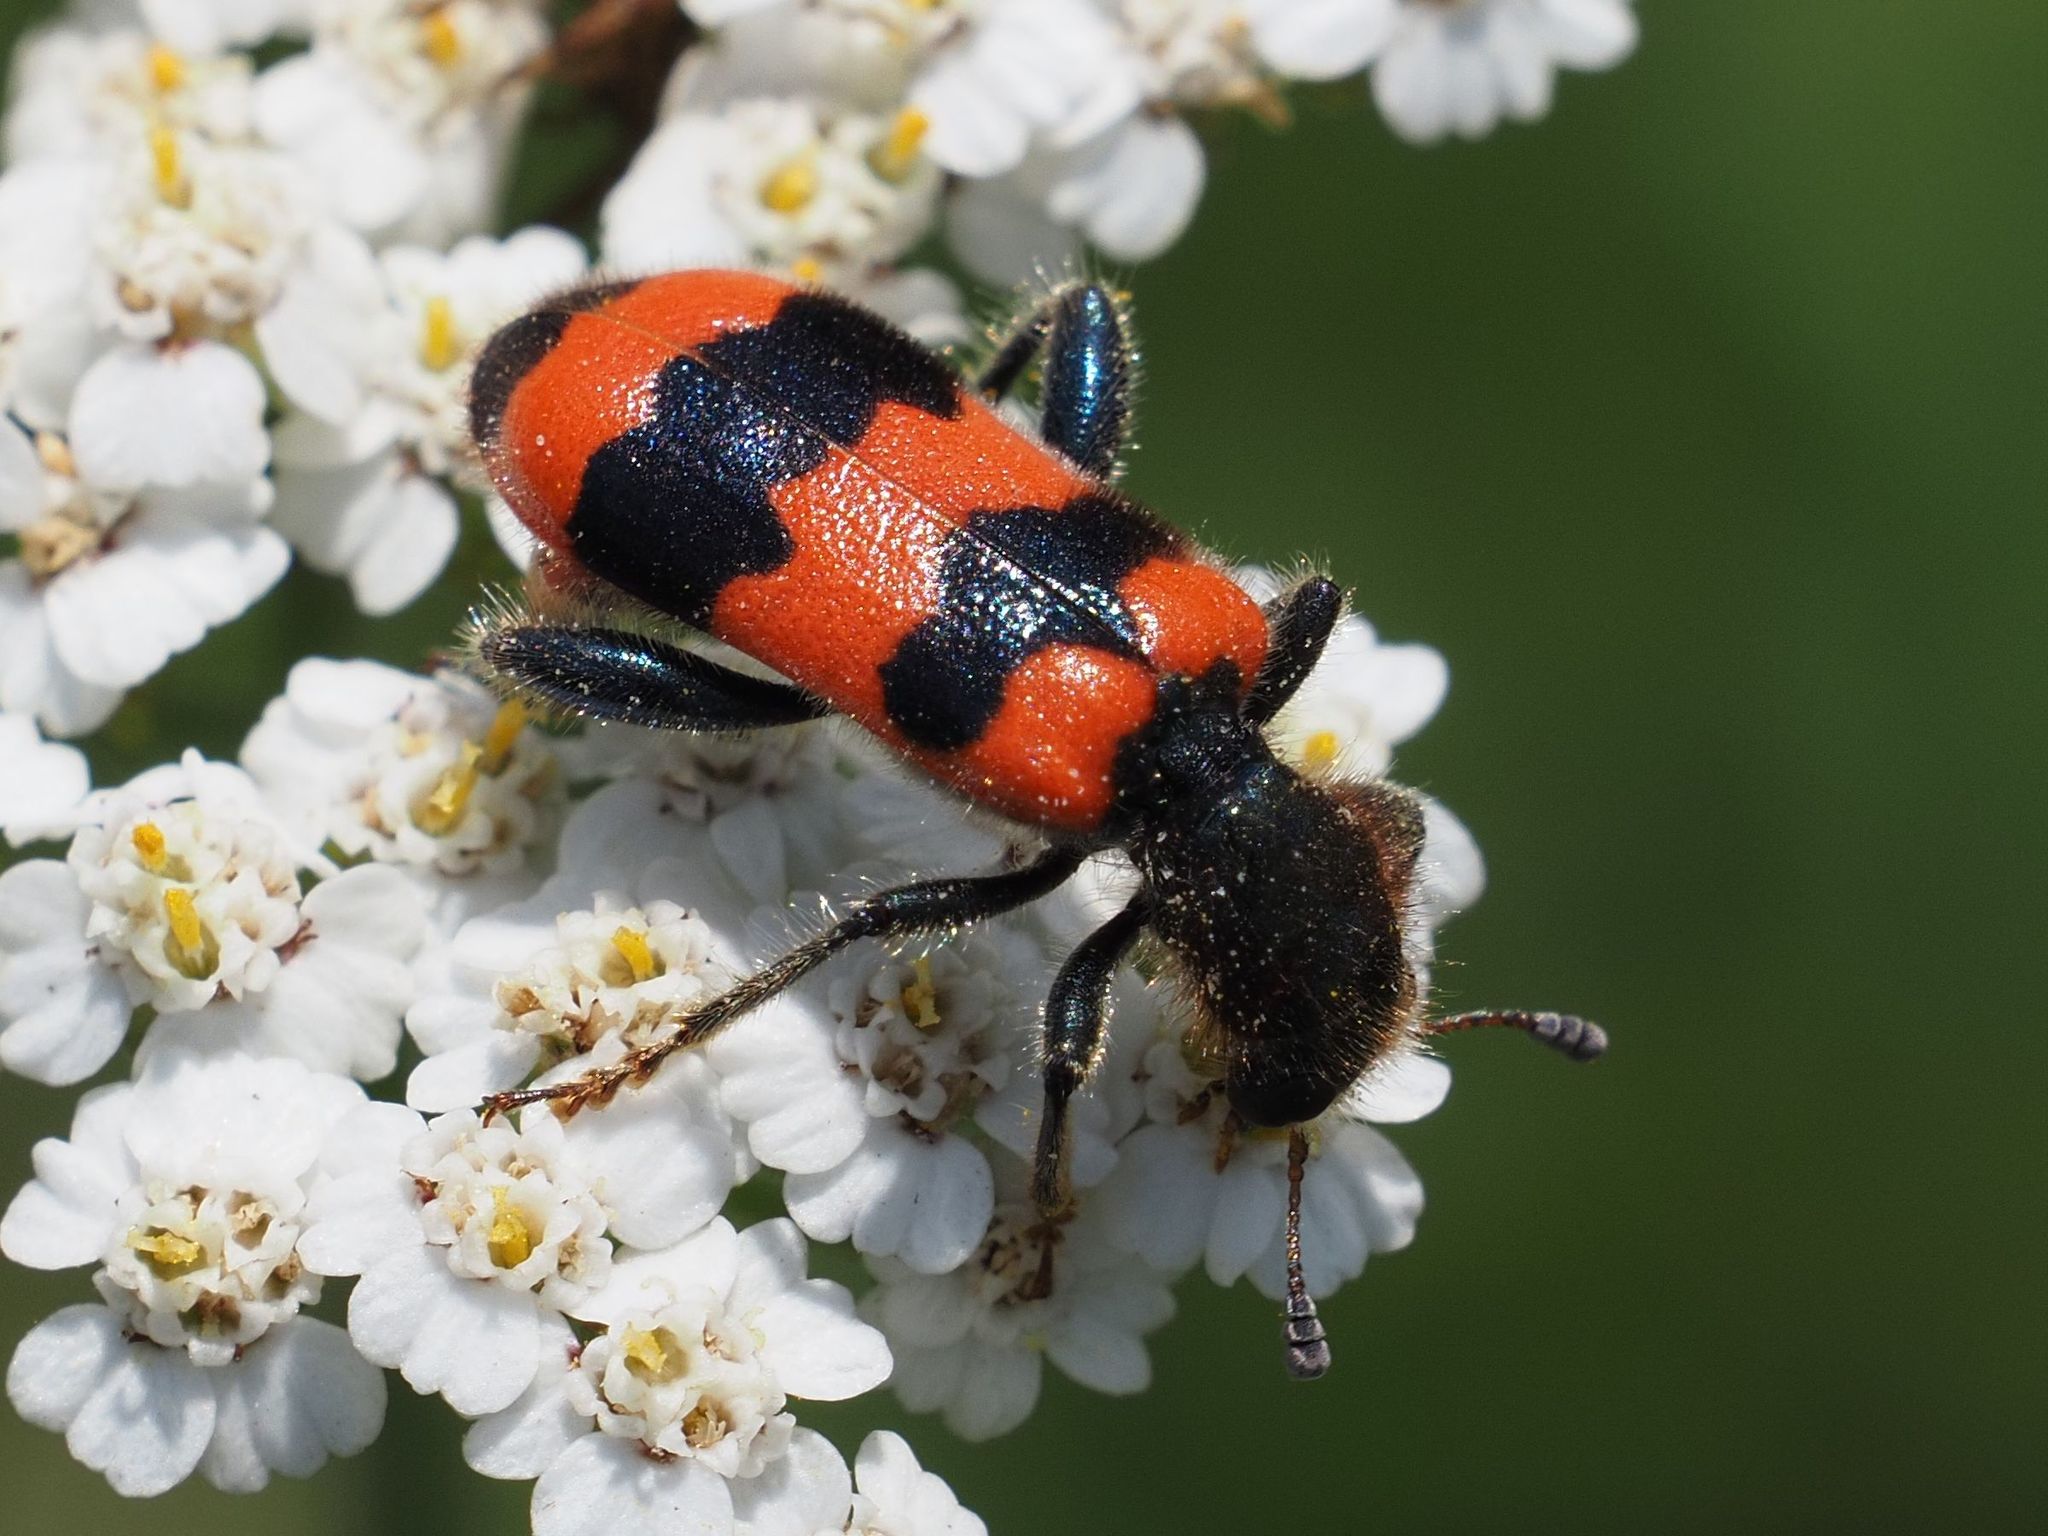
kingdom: Animalia
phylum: Arthropoda
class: Insecta
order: Coleoptera
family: Cleridae
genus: Trichodes
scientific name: Trichodes apiarius
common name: Bee-eating beetle
